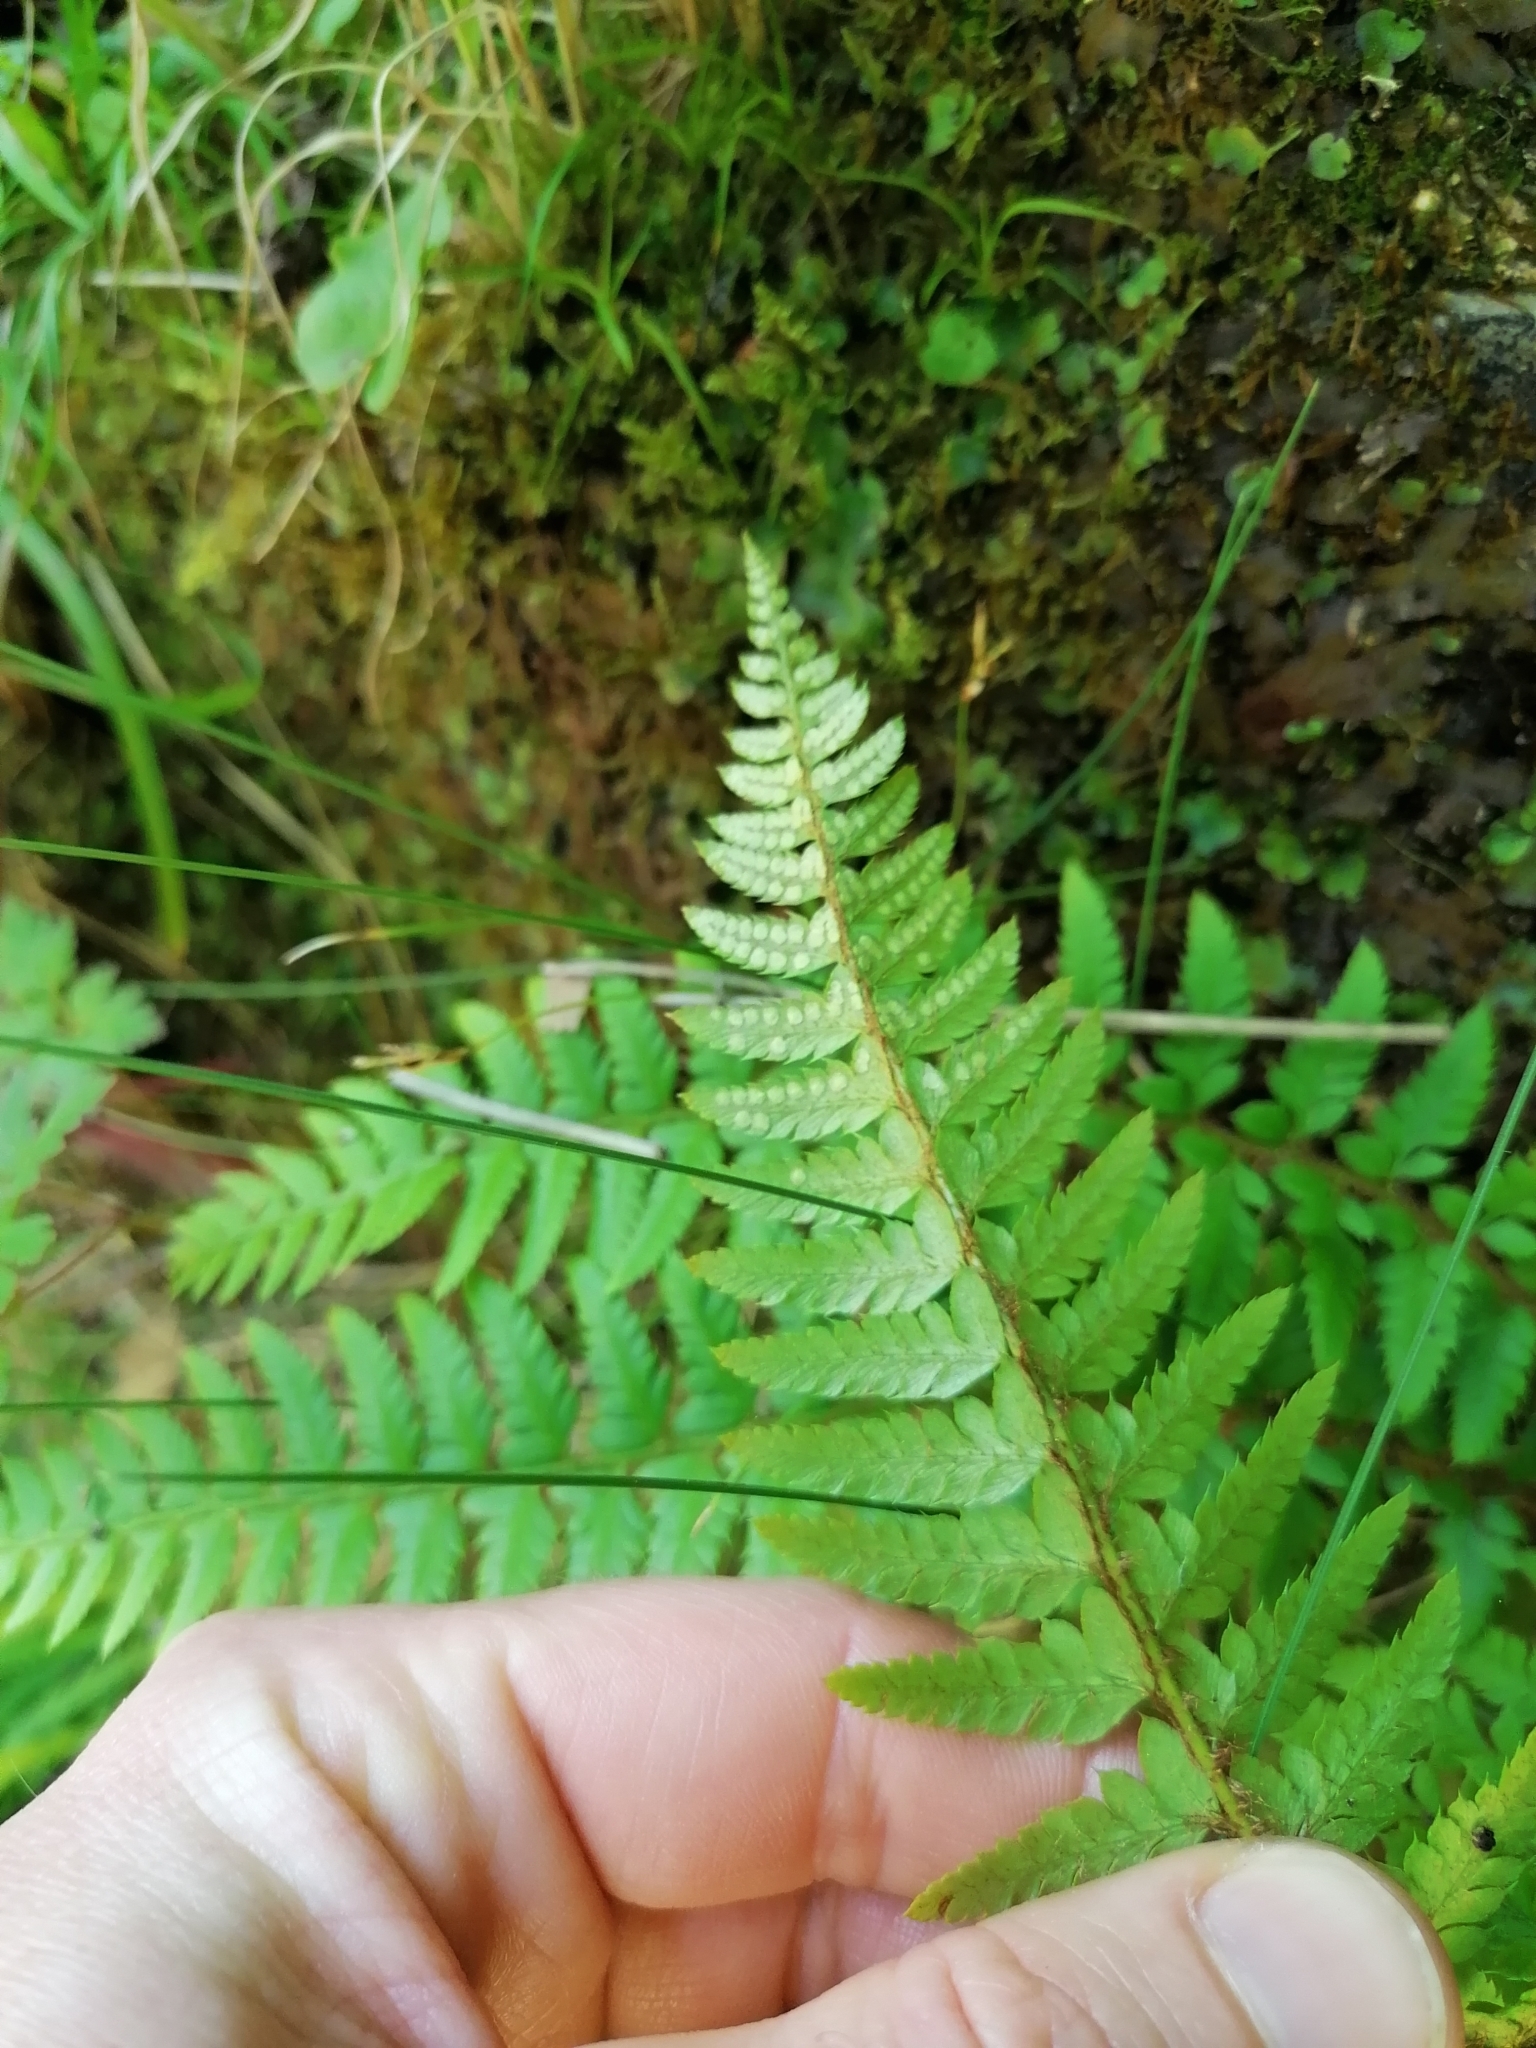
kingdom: Plantae
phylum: Tracheophyta
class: Polypodiopsida
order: Polypodiales
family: Dryopteridaceae
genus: Polystichum
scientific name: Polystichum aculeatum
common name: Hard shield-fern
